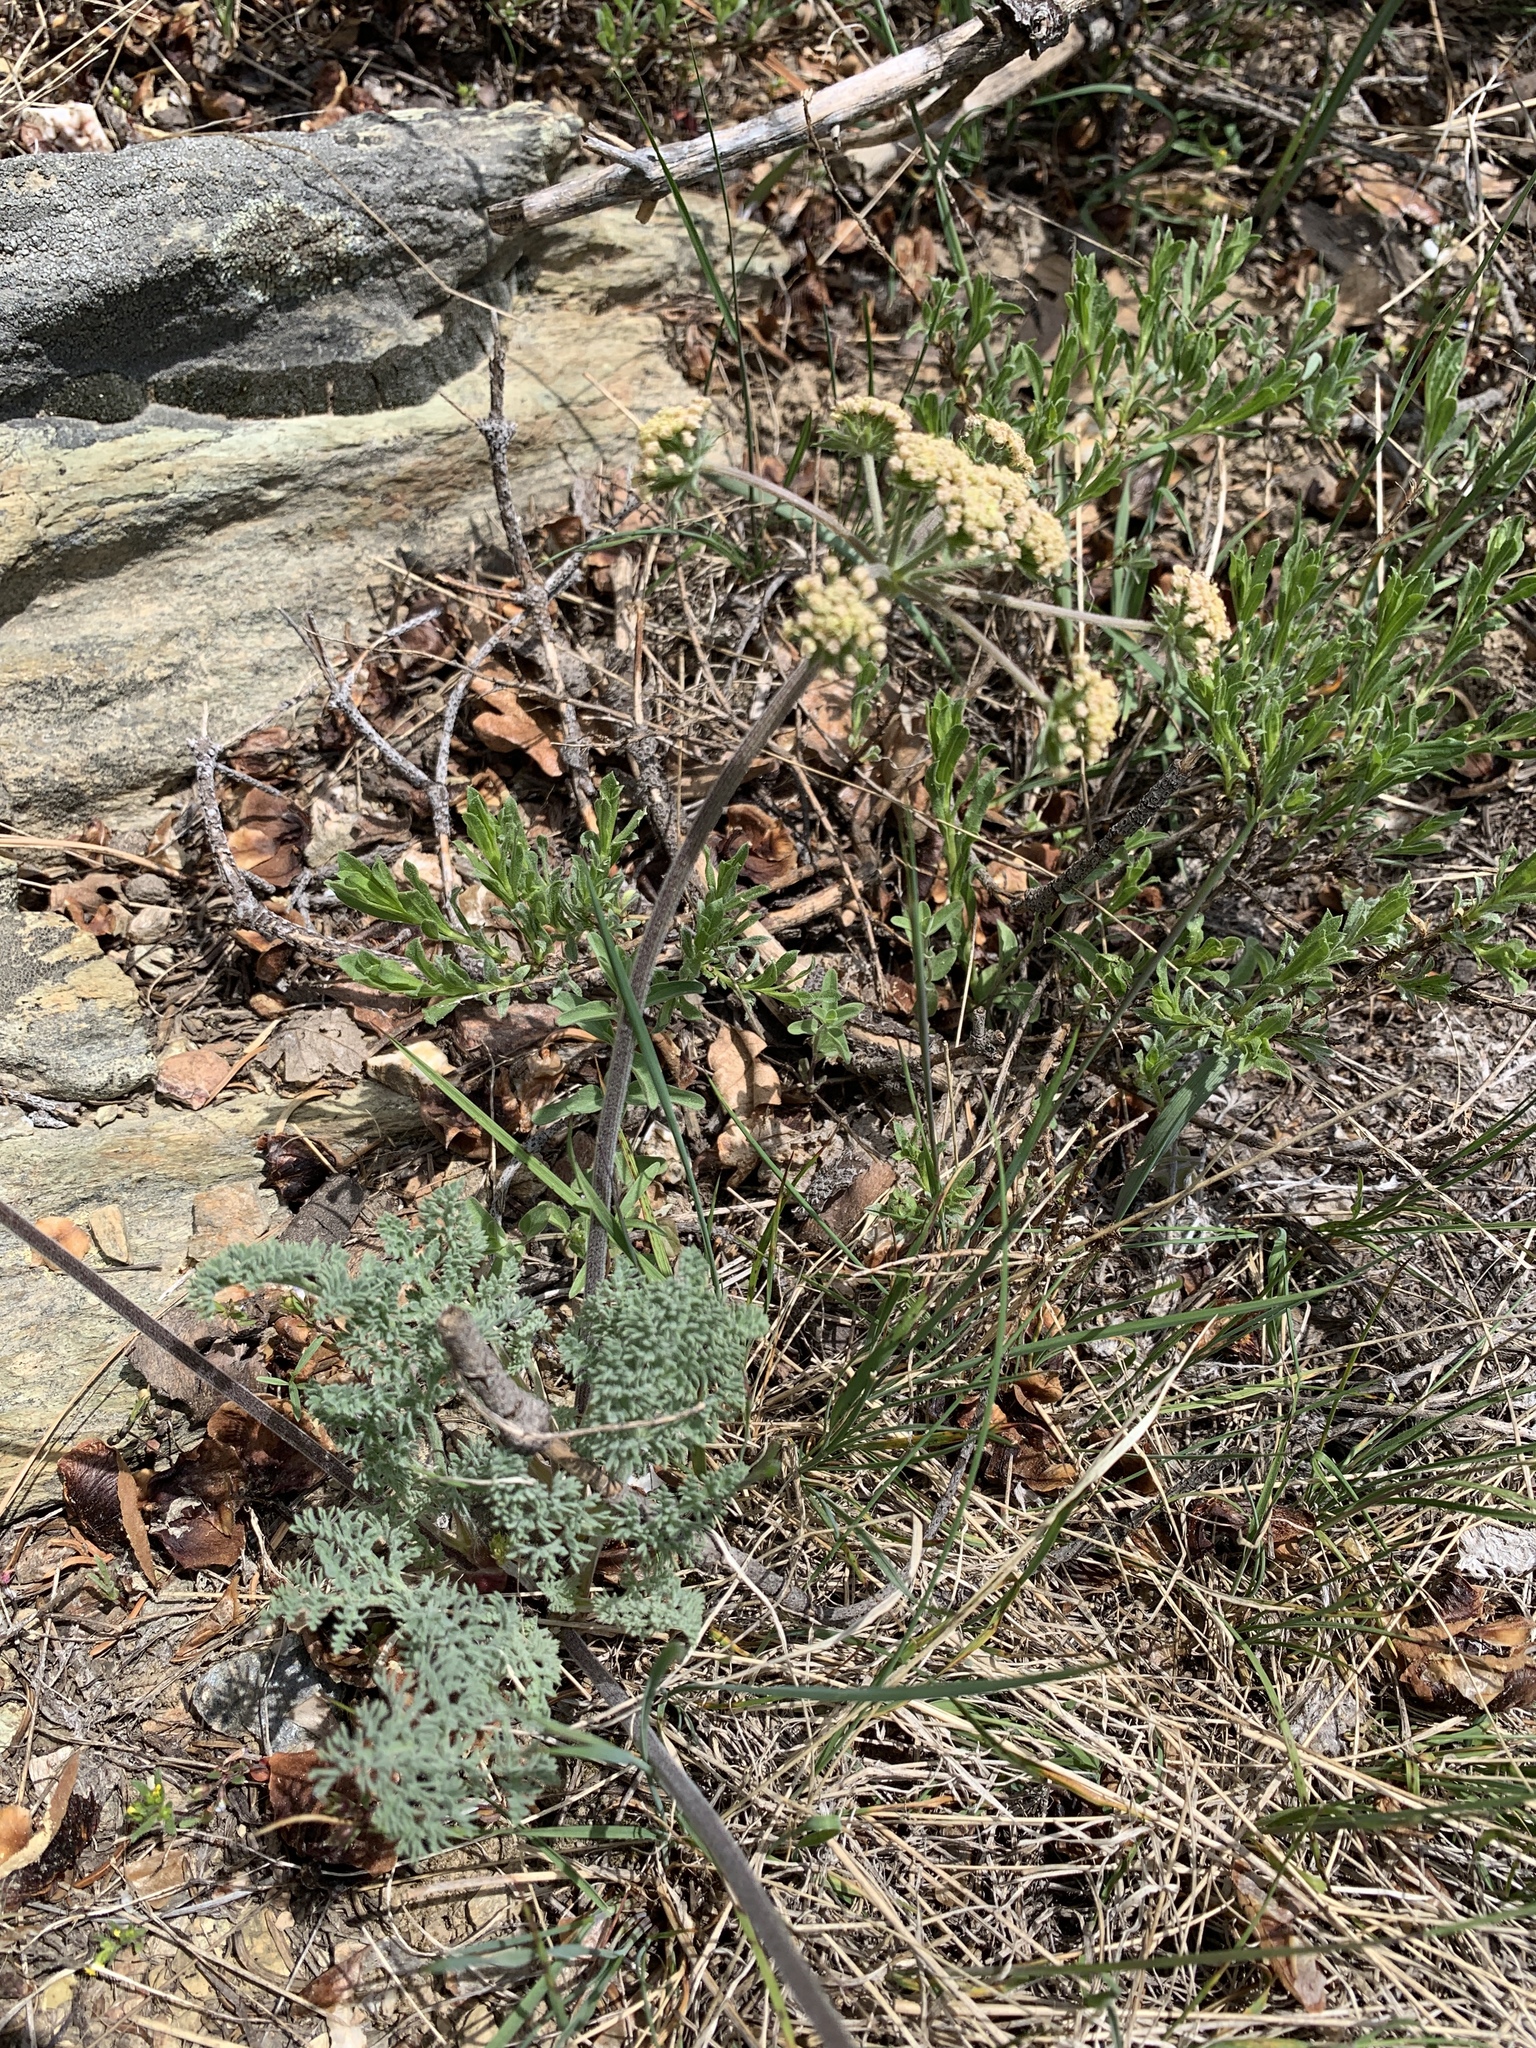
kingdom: Plantae
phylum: Tracheophyta
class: Magnoliopsida
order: Apiales
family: Apiaceae
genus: Lomatium
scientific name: Lomatium macrocarpum
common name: Big-seed biscuitroot
